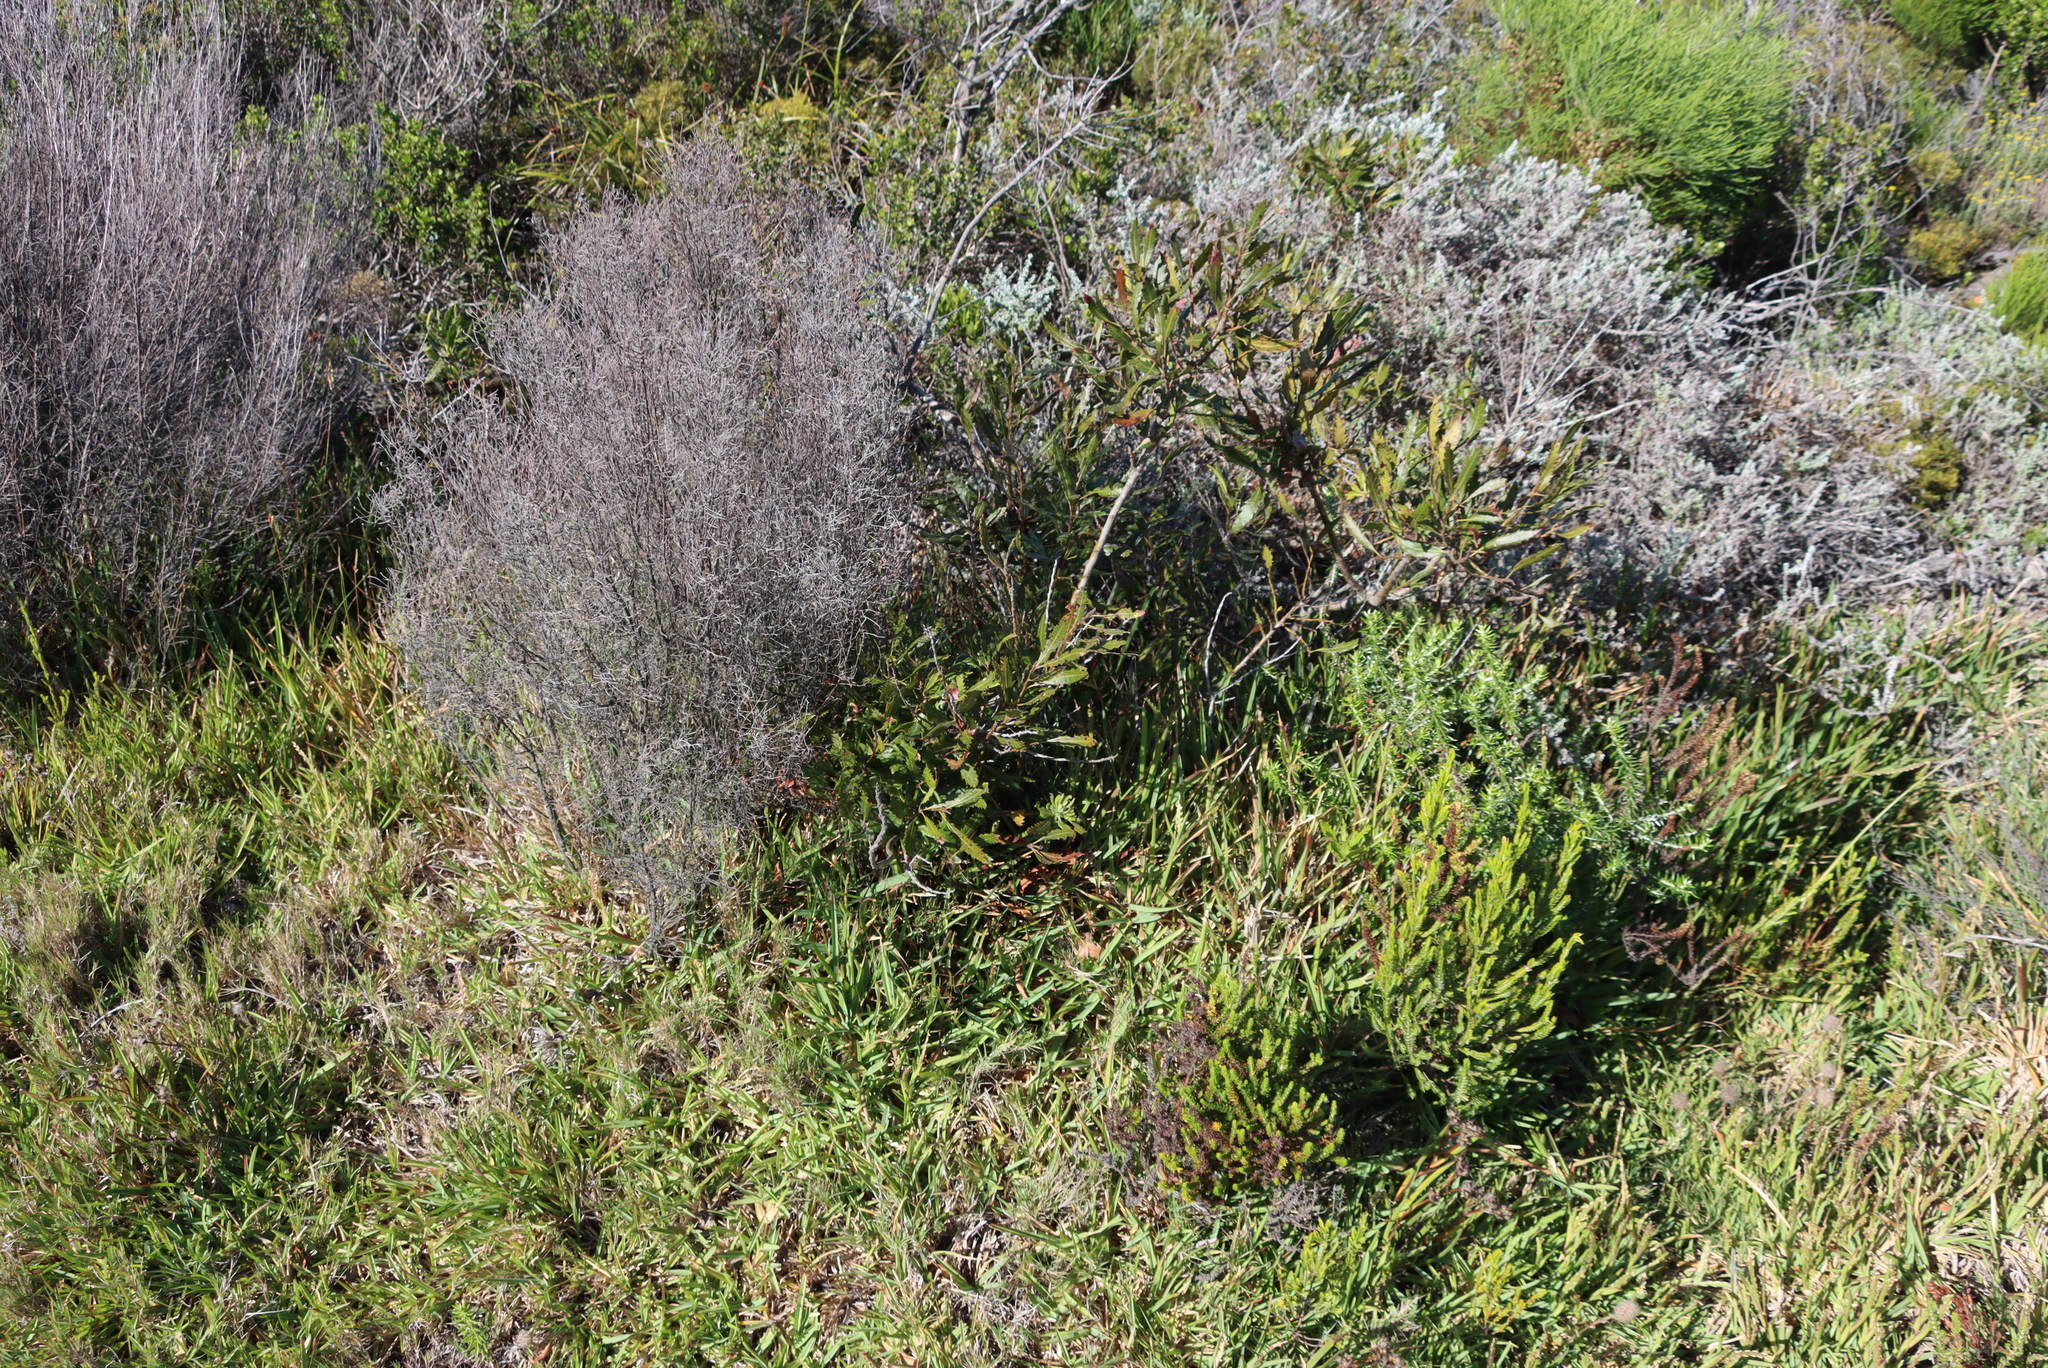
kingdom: Plantae
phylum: Tracheophyta
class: Magnoliopsida
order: Fagales
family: Myricaceae
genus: Morella
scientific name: Morella serrata
